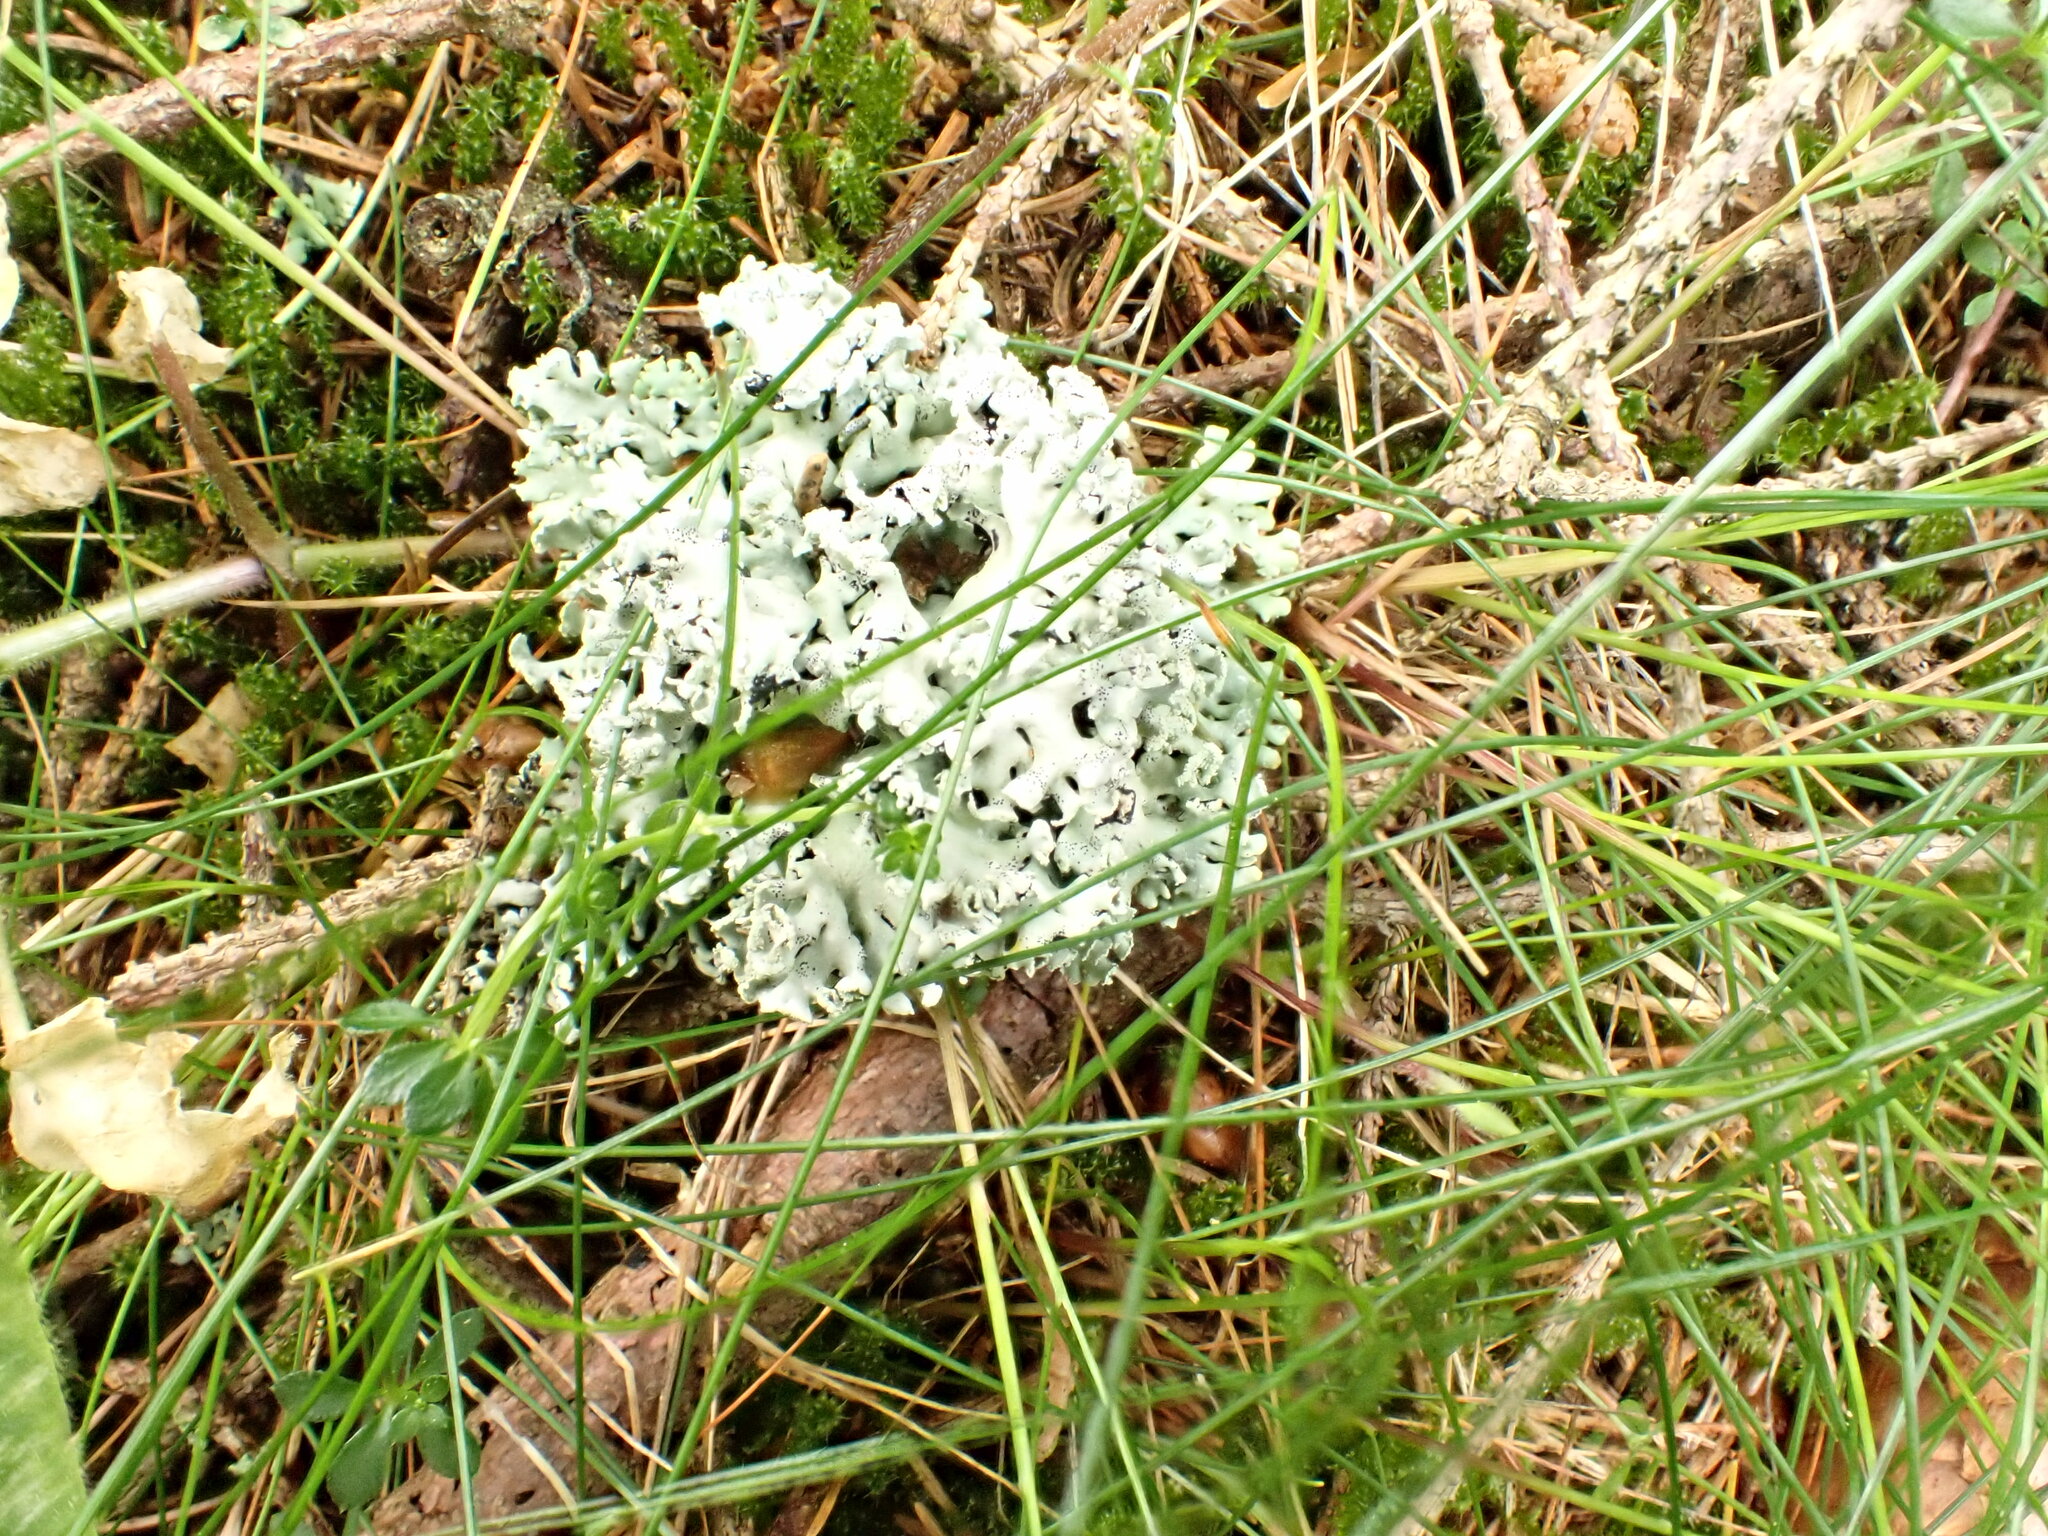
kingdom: Fungi
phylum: Ascomycota
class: Lecanoromycetes
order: Lecanorales
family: Parmeliaceae
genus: Hypogymnia
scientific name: Hypogymnia physodes
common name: Dark crottle
